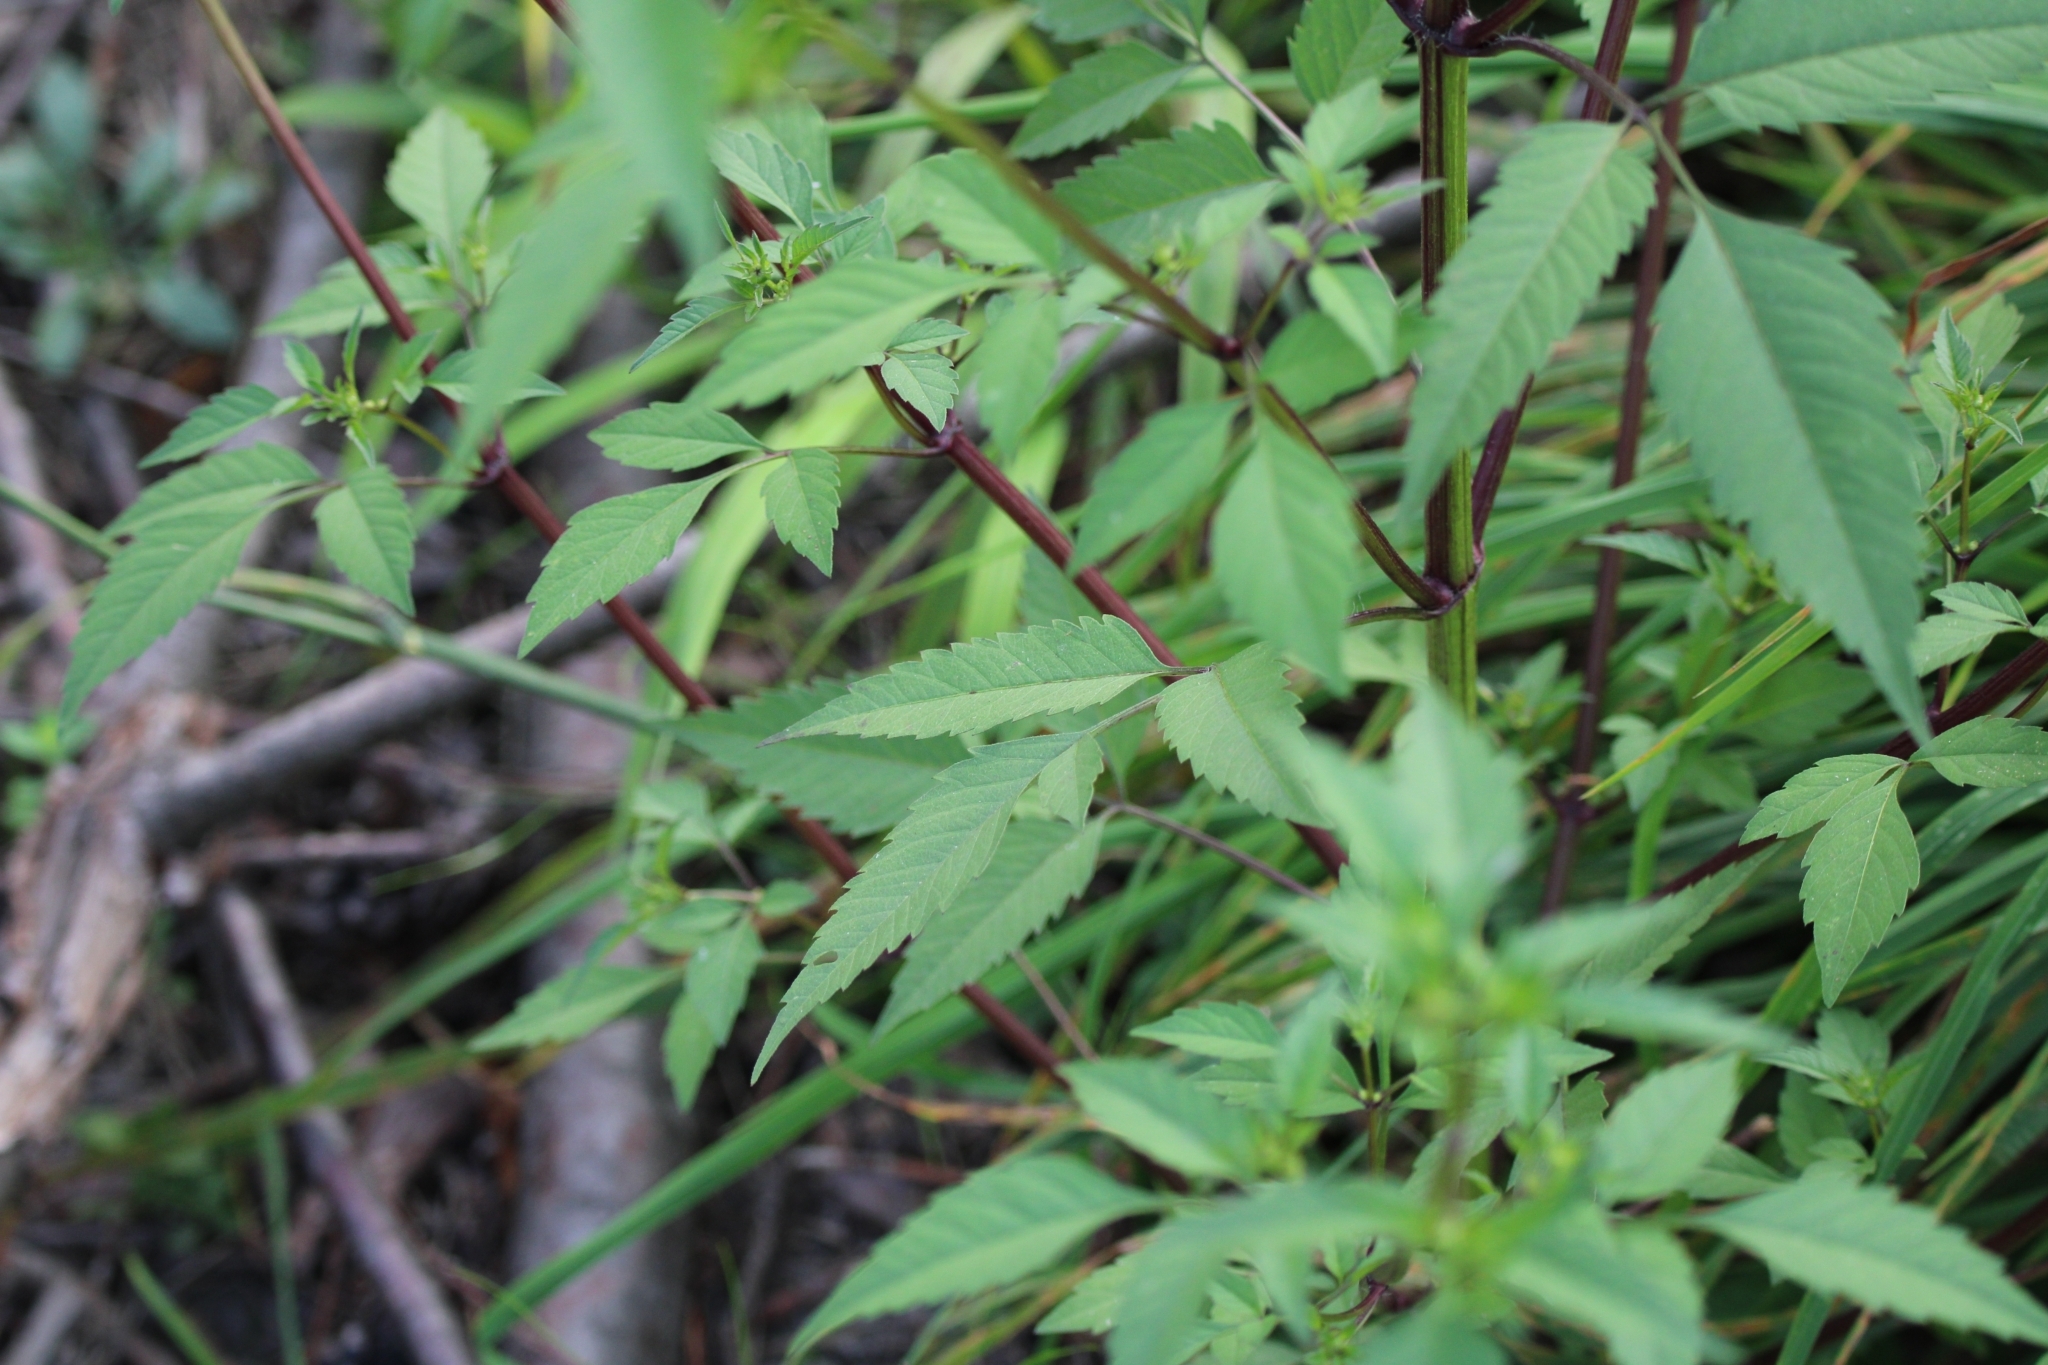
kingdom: Plantae
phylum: Tracheophyta
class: Magnoliopsida
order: Asterales
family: Asteraceae
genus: Bidens
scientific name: Bidens frondosa
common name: Beggarticks
